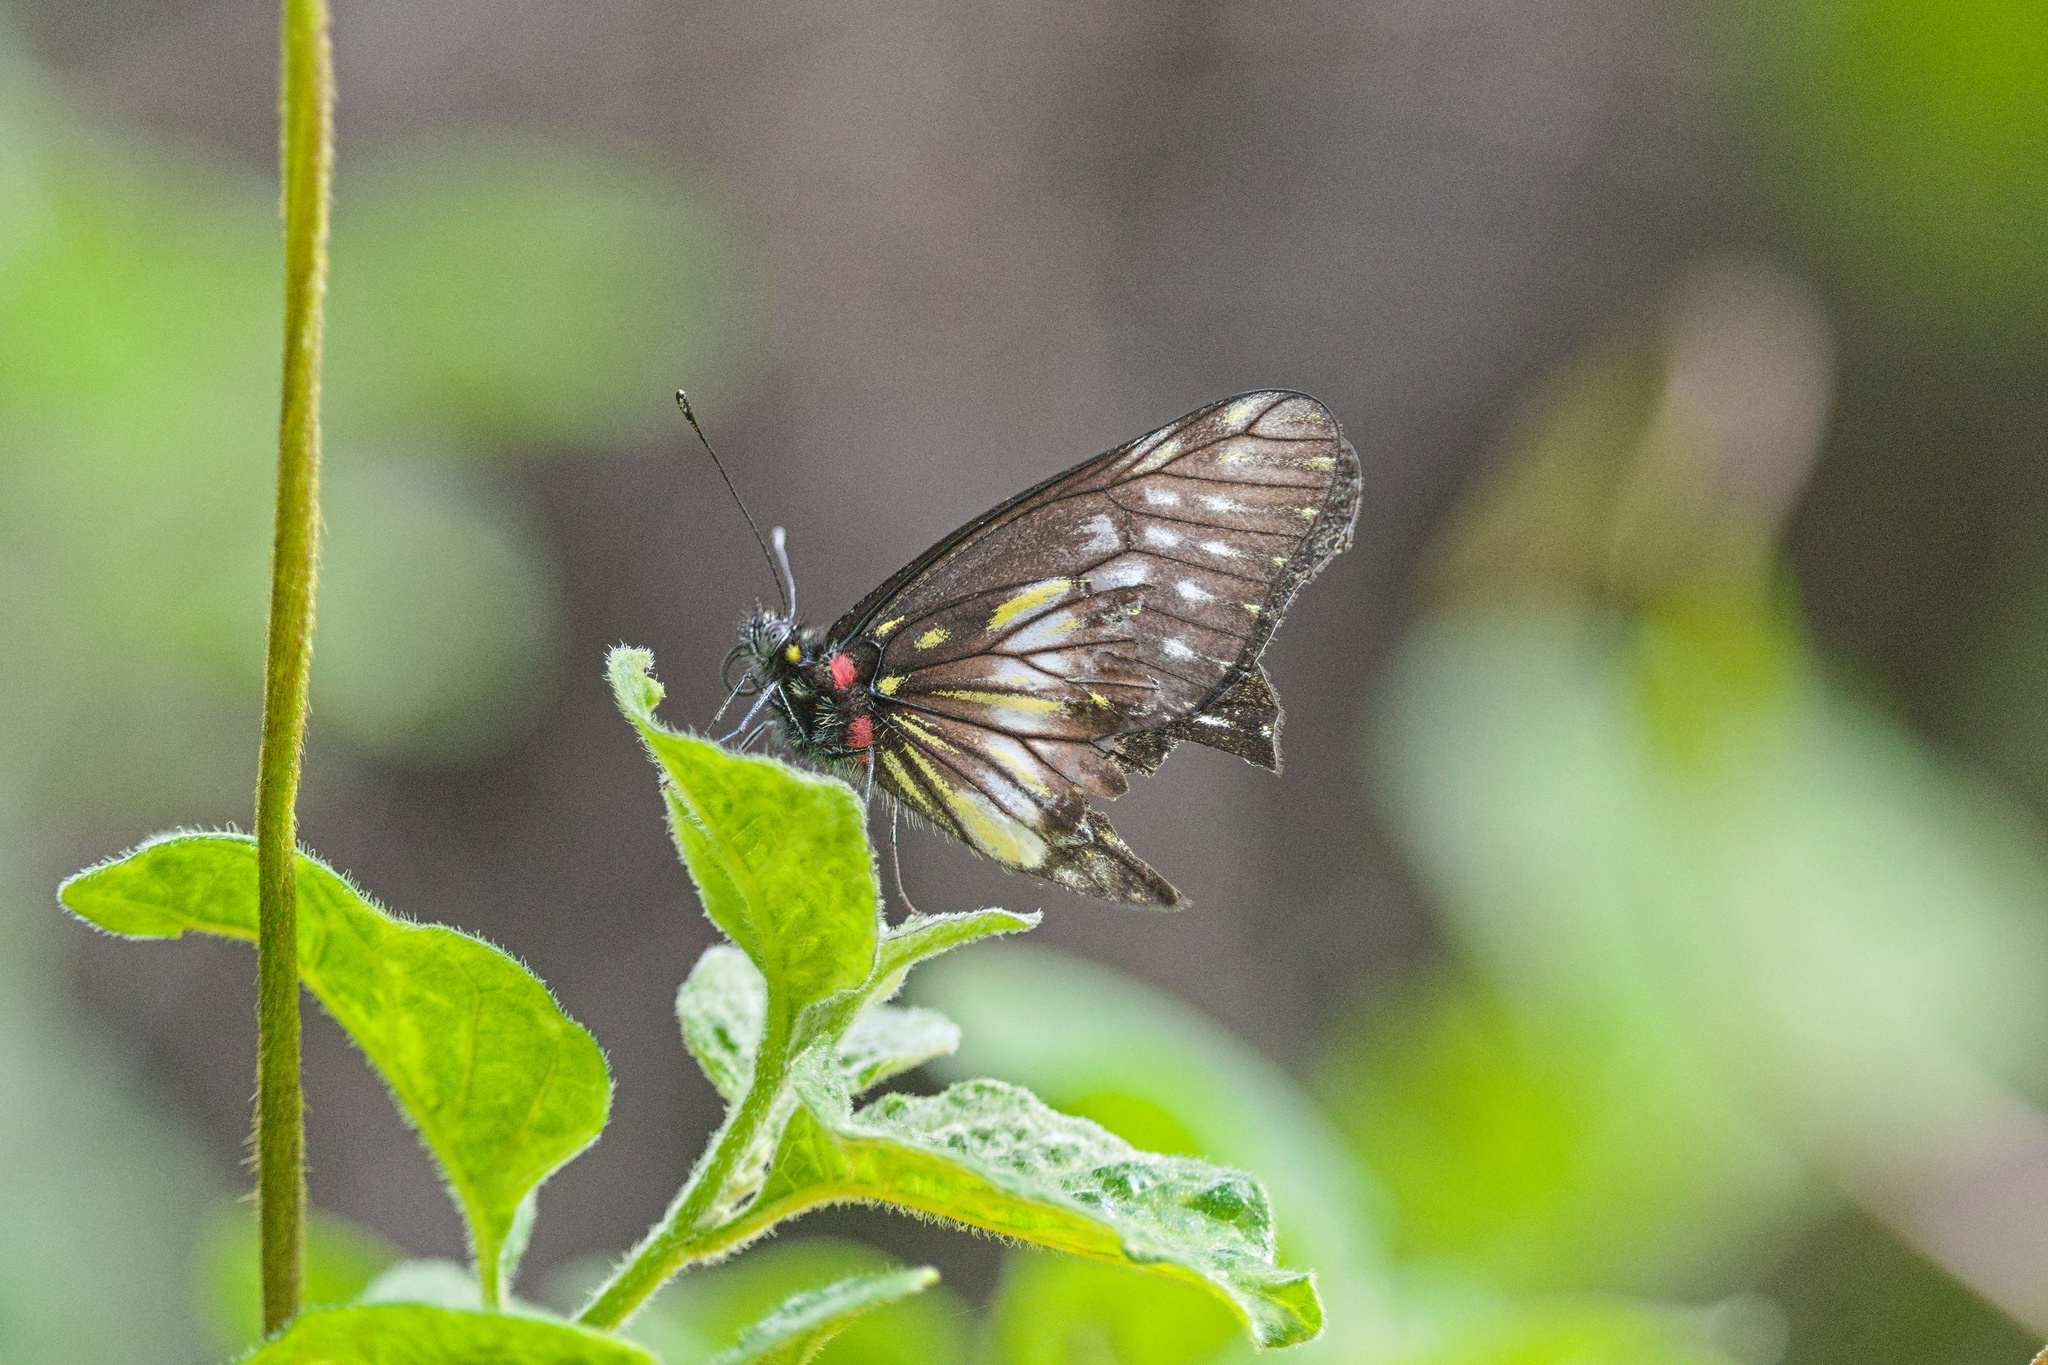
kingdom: Animalia
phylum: Arthropoda
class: Insecta
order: Lepidoptera
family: Pieridae
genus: Archonias
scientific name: Archonias flisa
